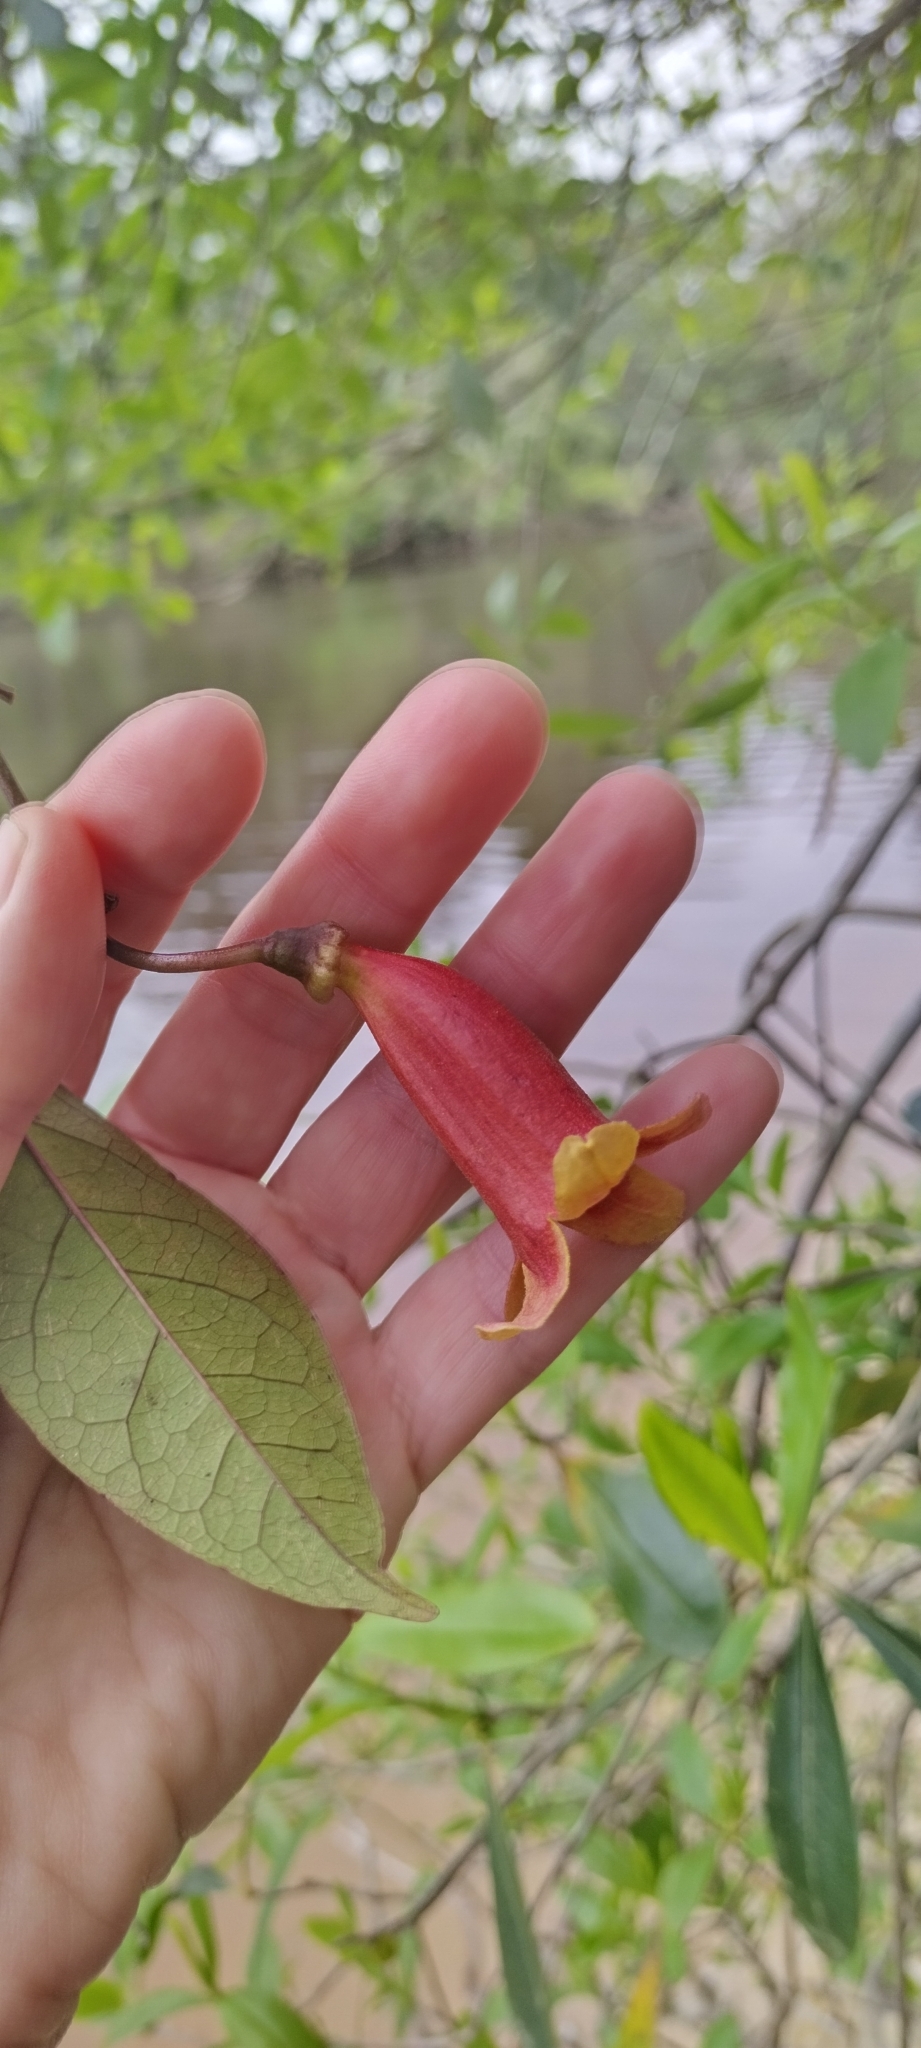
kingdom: Plantae
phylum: Tracheophyta
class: Magnoliopsida
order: Lamiales
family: Bignoniaceae
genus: Bignonia
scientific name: Bignonia capreolata
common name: Crossvine
